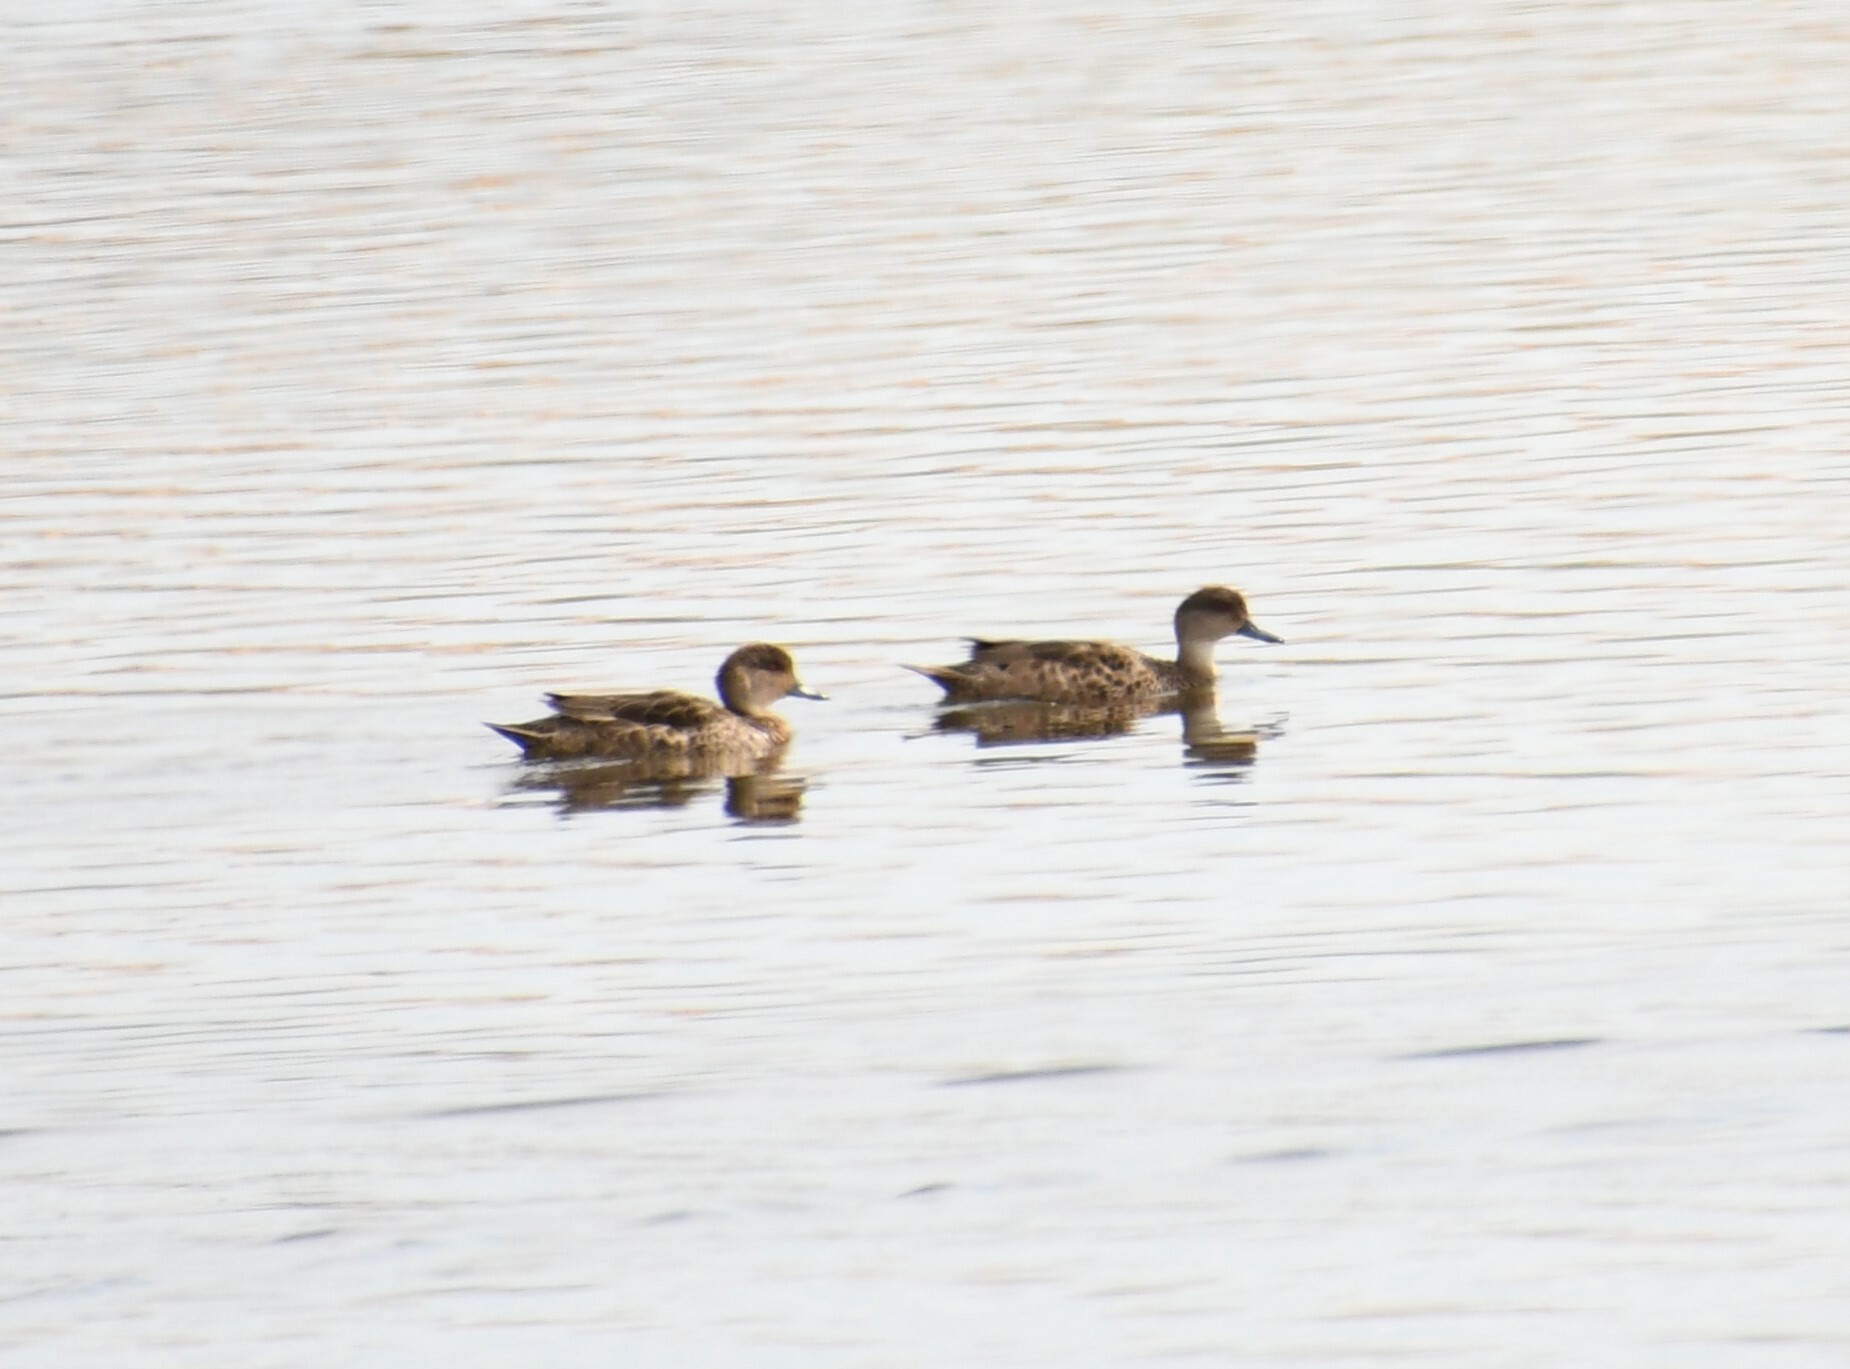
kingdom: Animalia
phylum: Chordata
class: Aves
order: Anseriformes
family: Anatidae
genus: Anas
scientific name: Anas gracilis
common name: Grey teal
